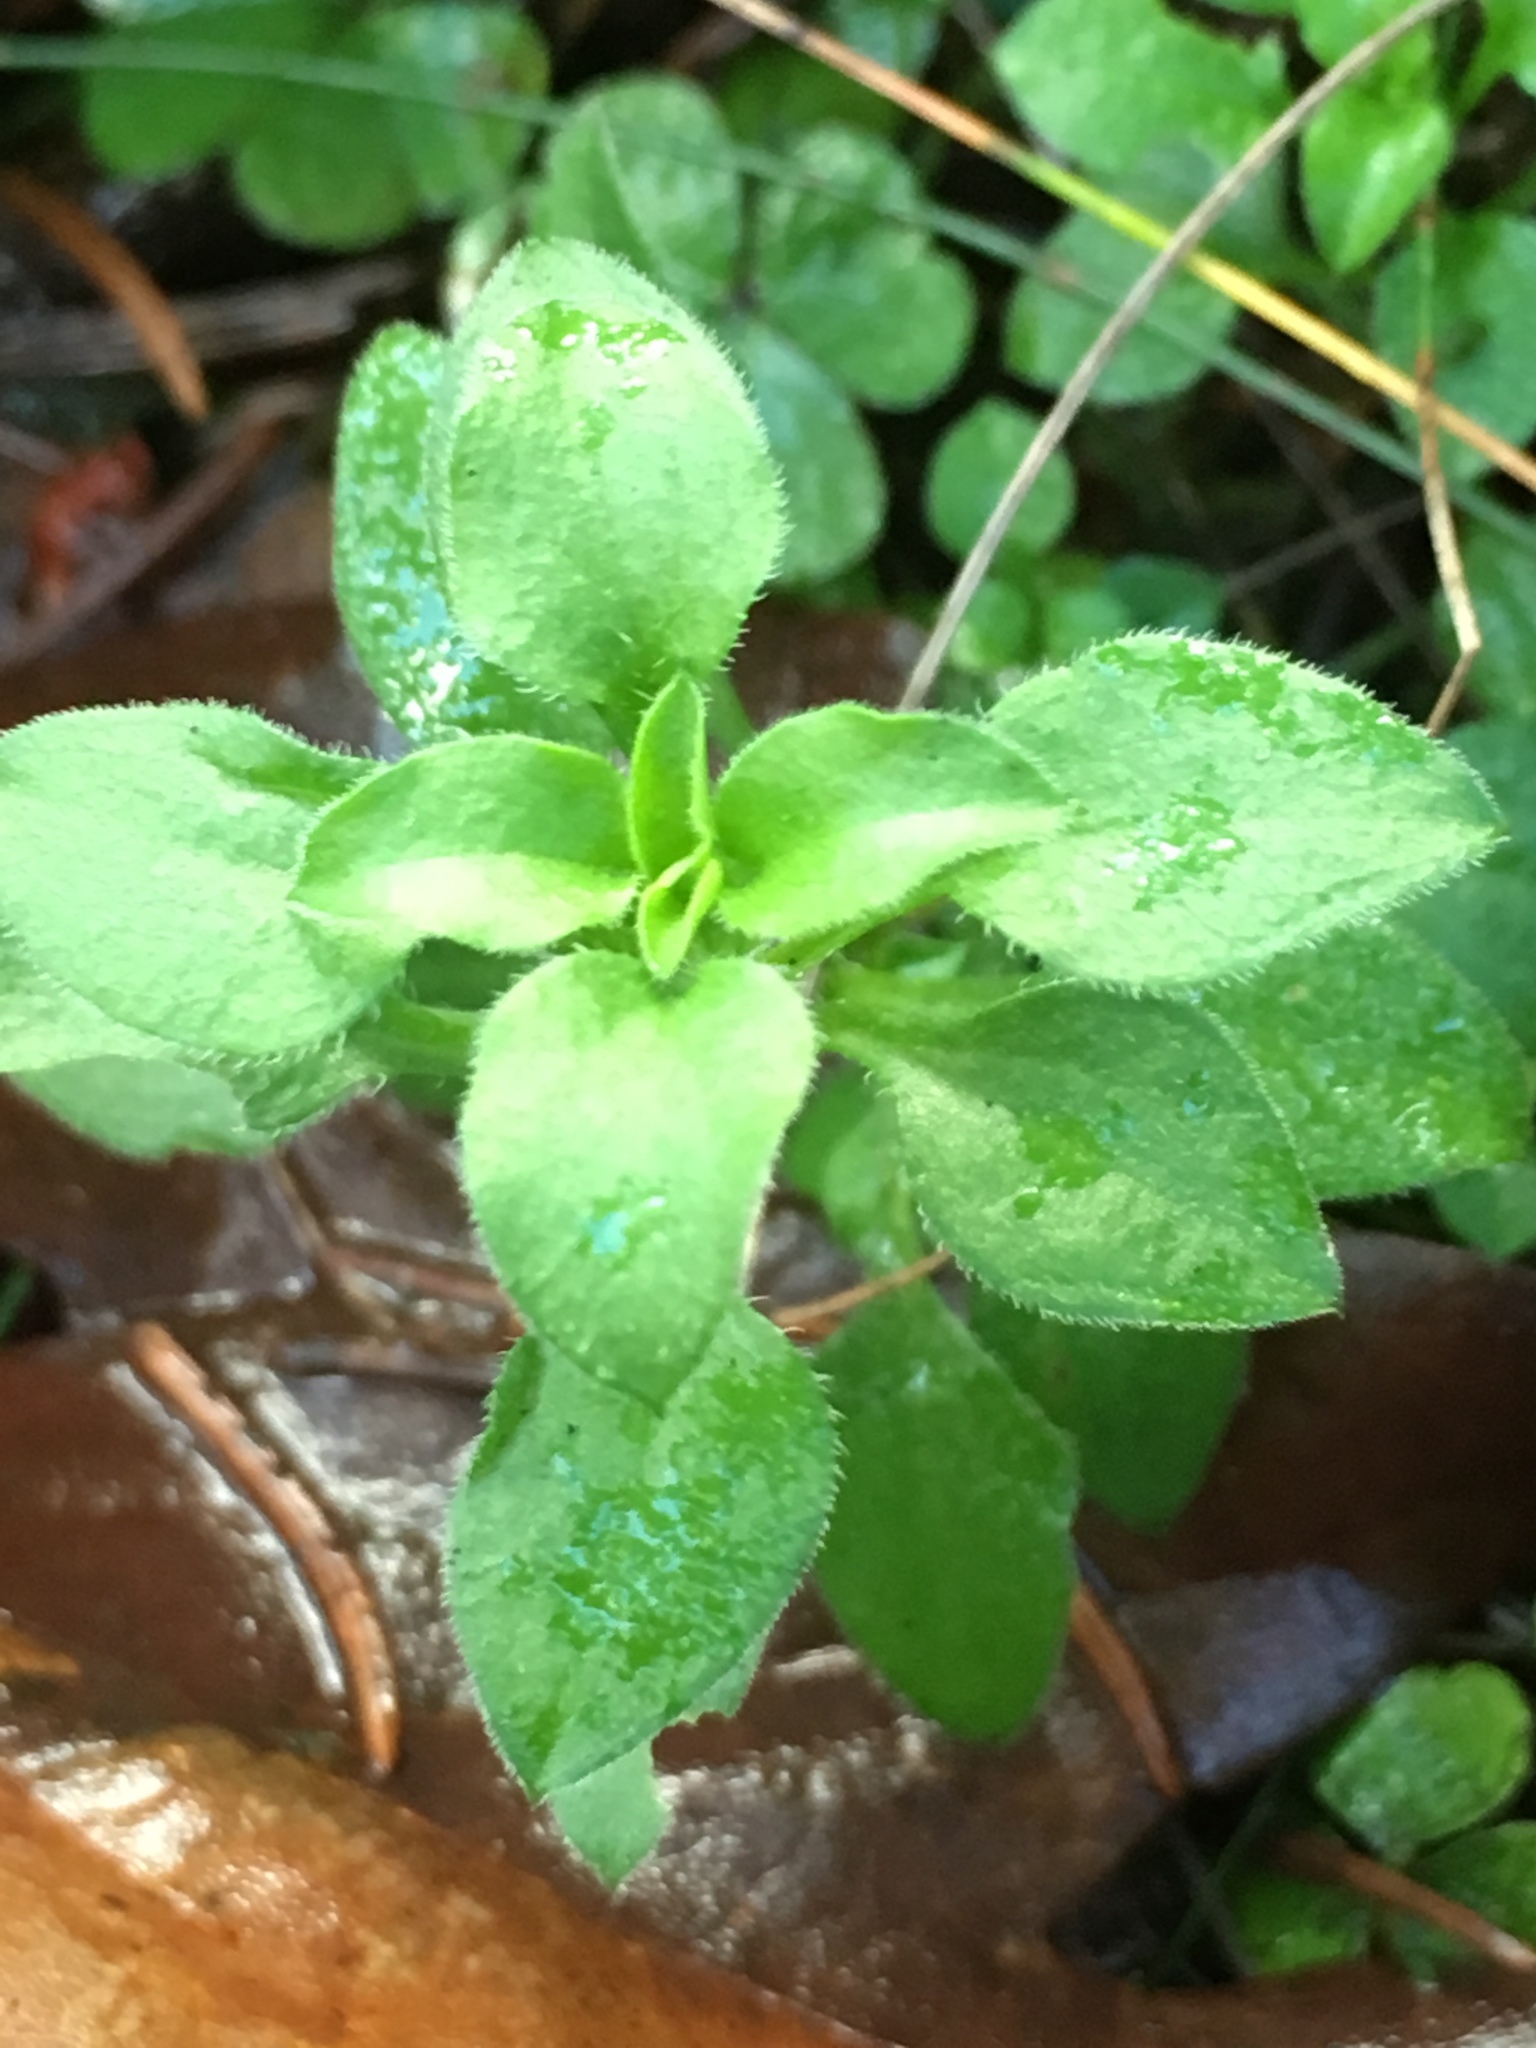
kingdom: Plantae
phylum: Tracheophyta
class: Magnoliopsida
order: Caryophyllales
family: Caryophyllaceae
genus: Stellaria
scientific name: Stellaria media
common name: Common chickweed
